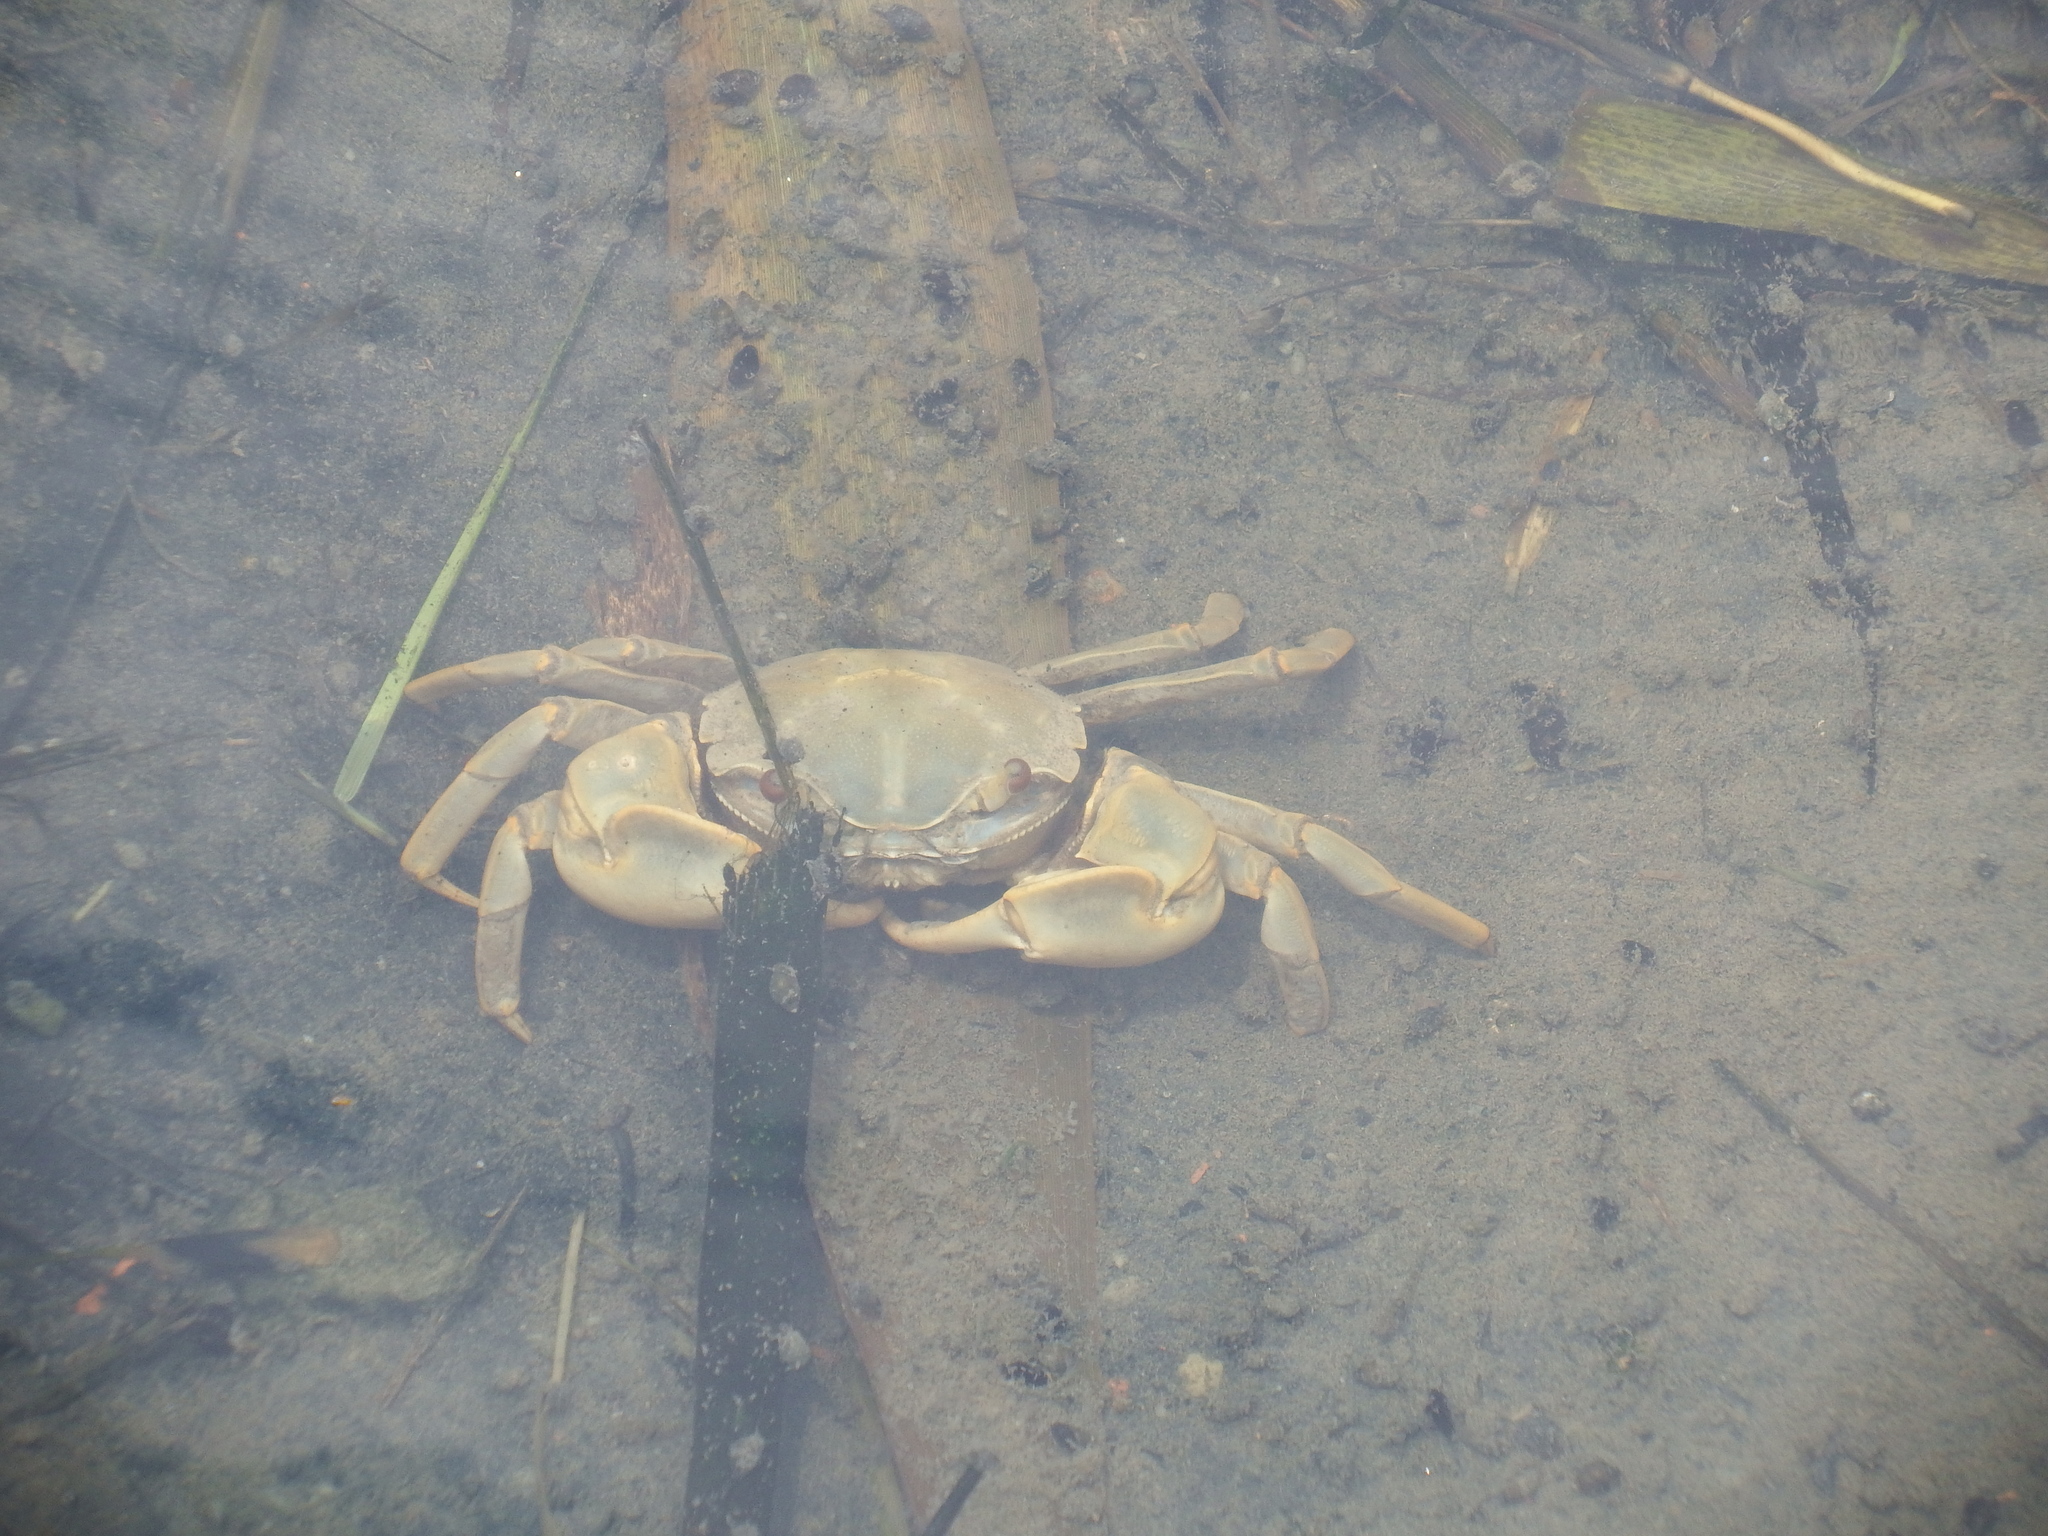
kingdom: Animalia
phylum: Arthropoda
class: Malacostraca
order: Decapoda
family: Varunidae
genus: Helice
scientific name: Helice formosensis
